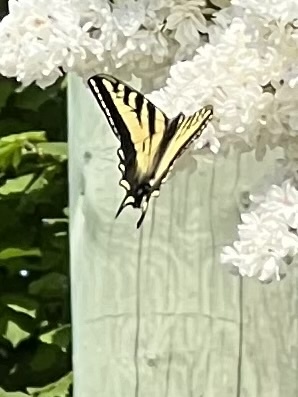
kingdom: Animalia
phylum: Arthropoda
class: Insecta
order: Lepidoptera
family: Papilionidae
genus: Papilio
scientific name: Papilio rutulus
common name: Western tiger swallowtail
